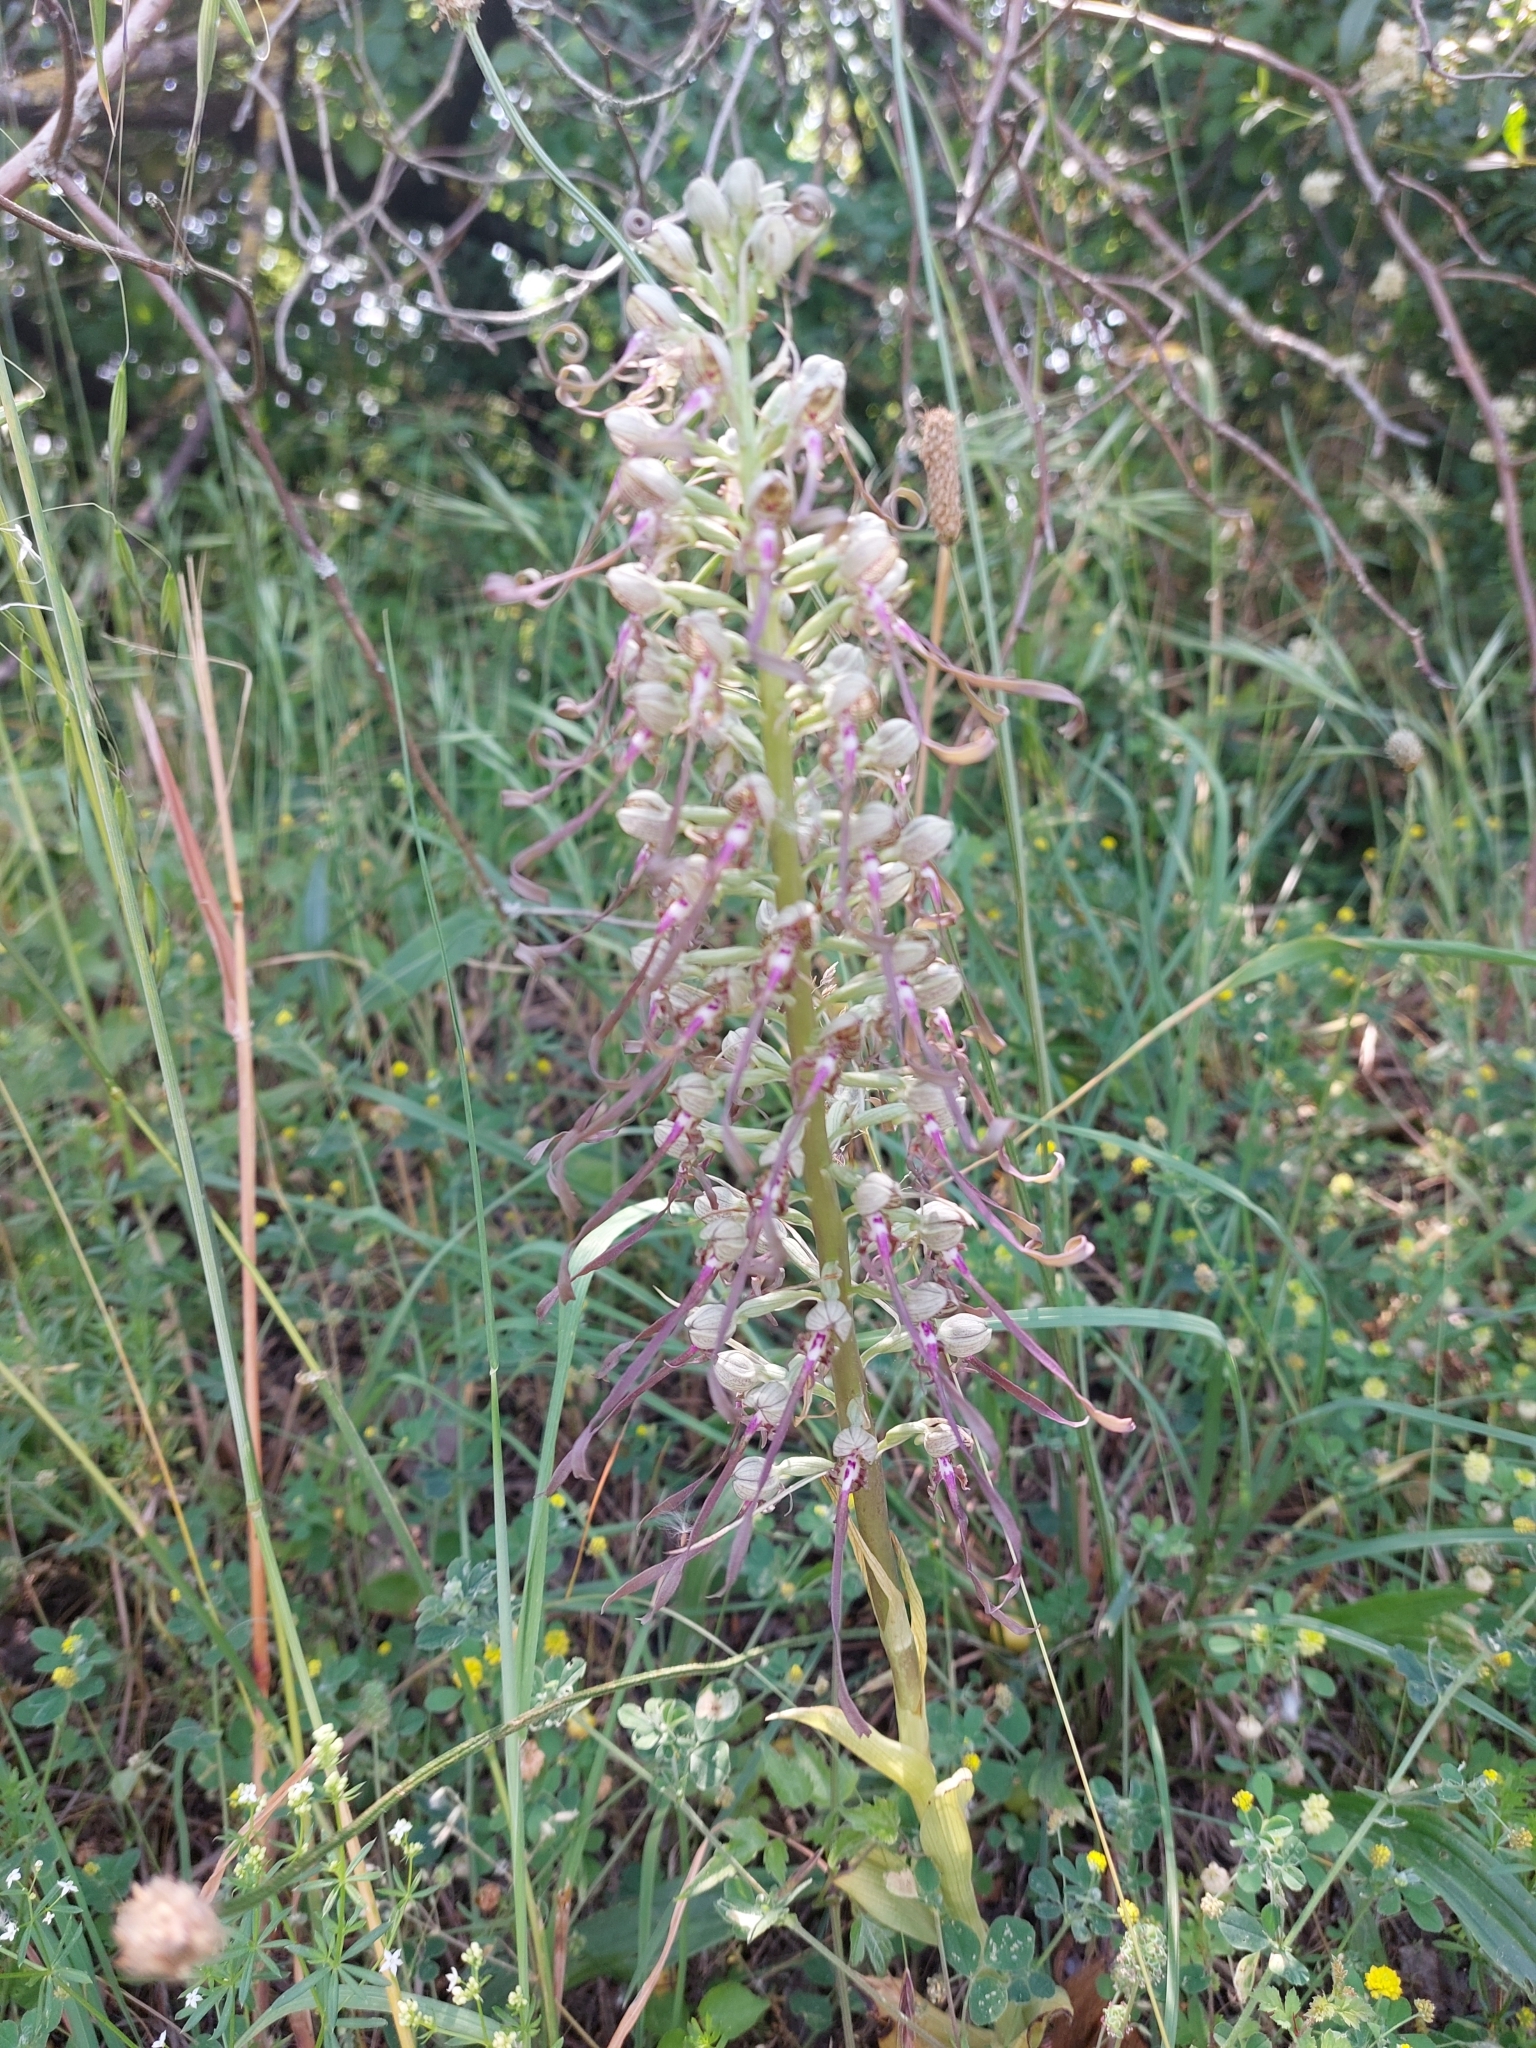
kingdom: Plantae
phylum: Tracheophyta
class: Liliopsida
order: Asparagales
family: Orchidaceae
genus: Himantoglossum
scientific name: Himantoglossum hircinum
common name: Lizard orchid
